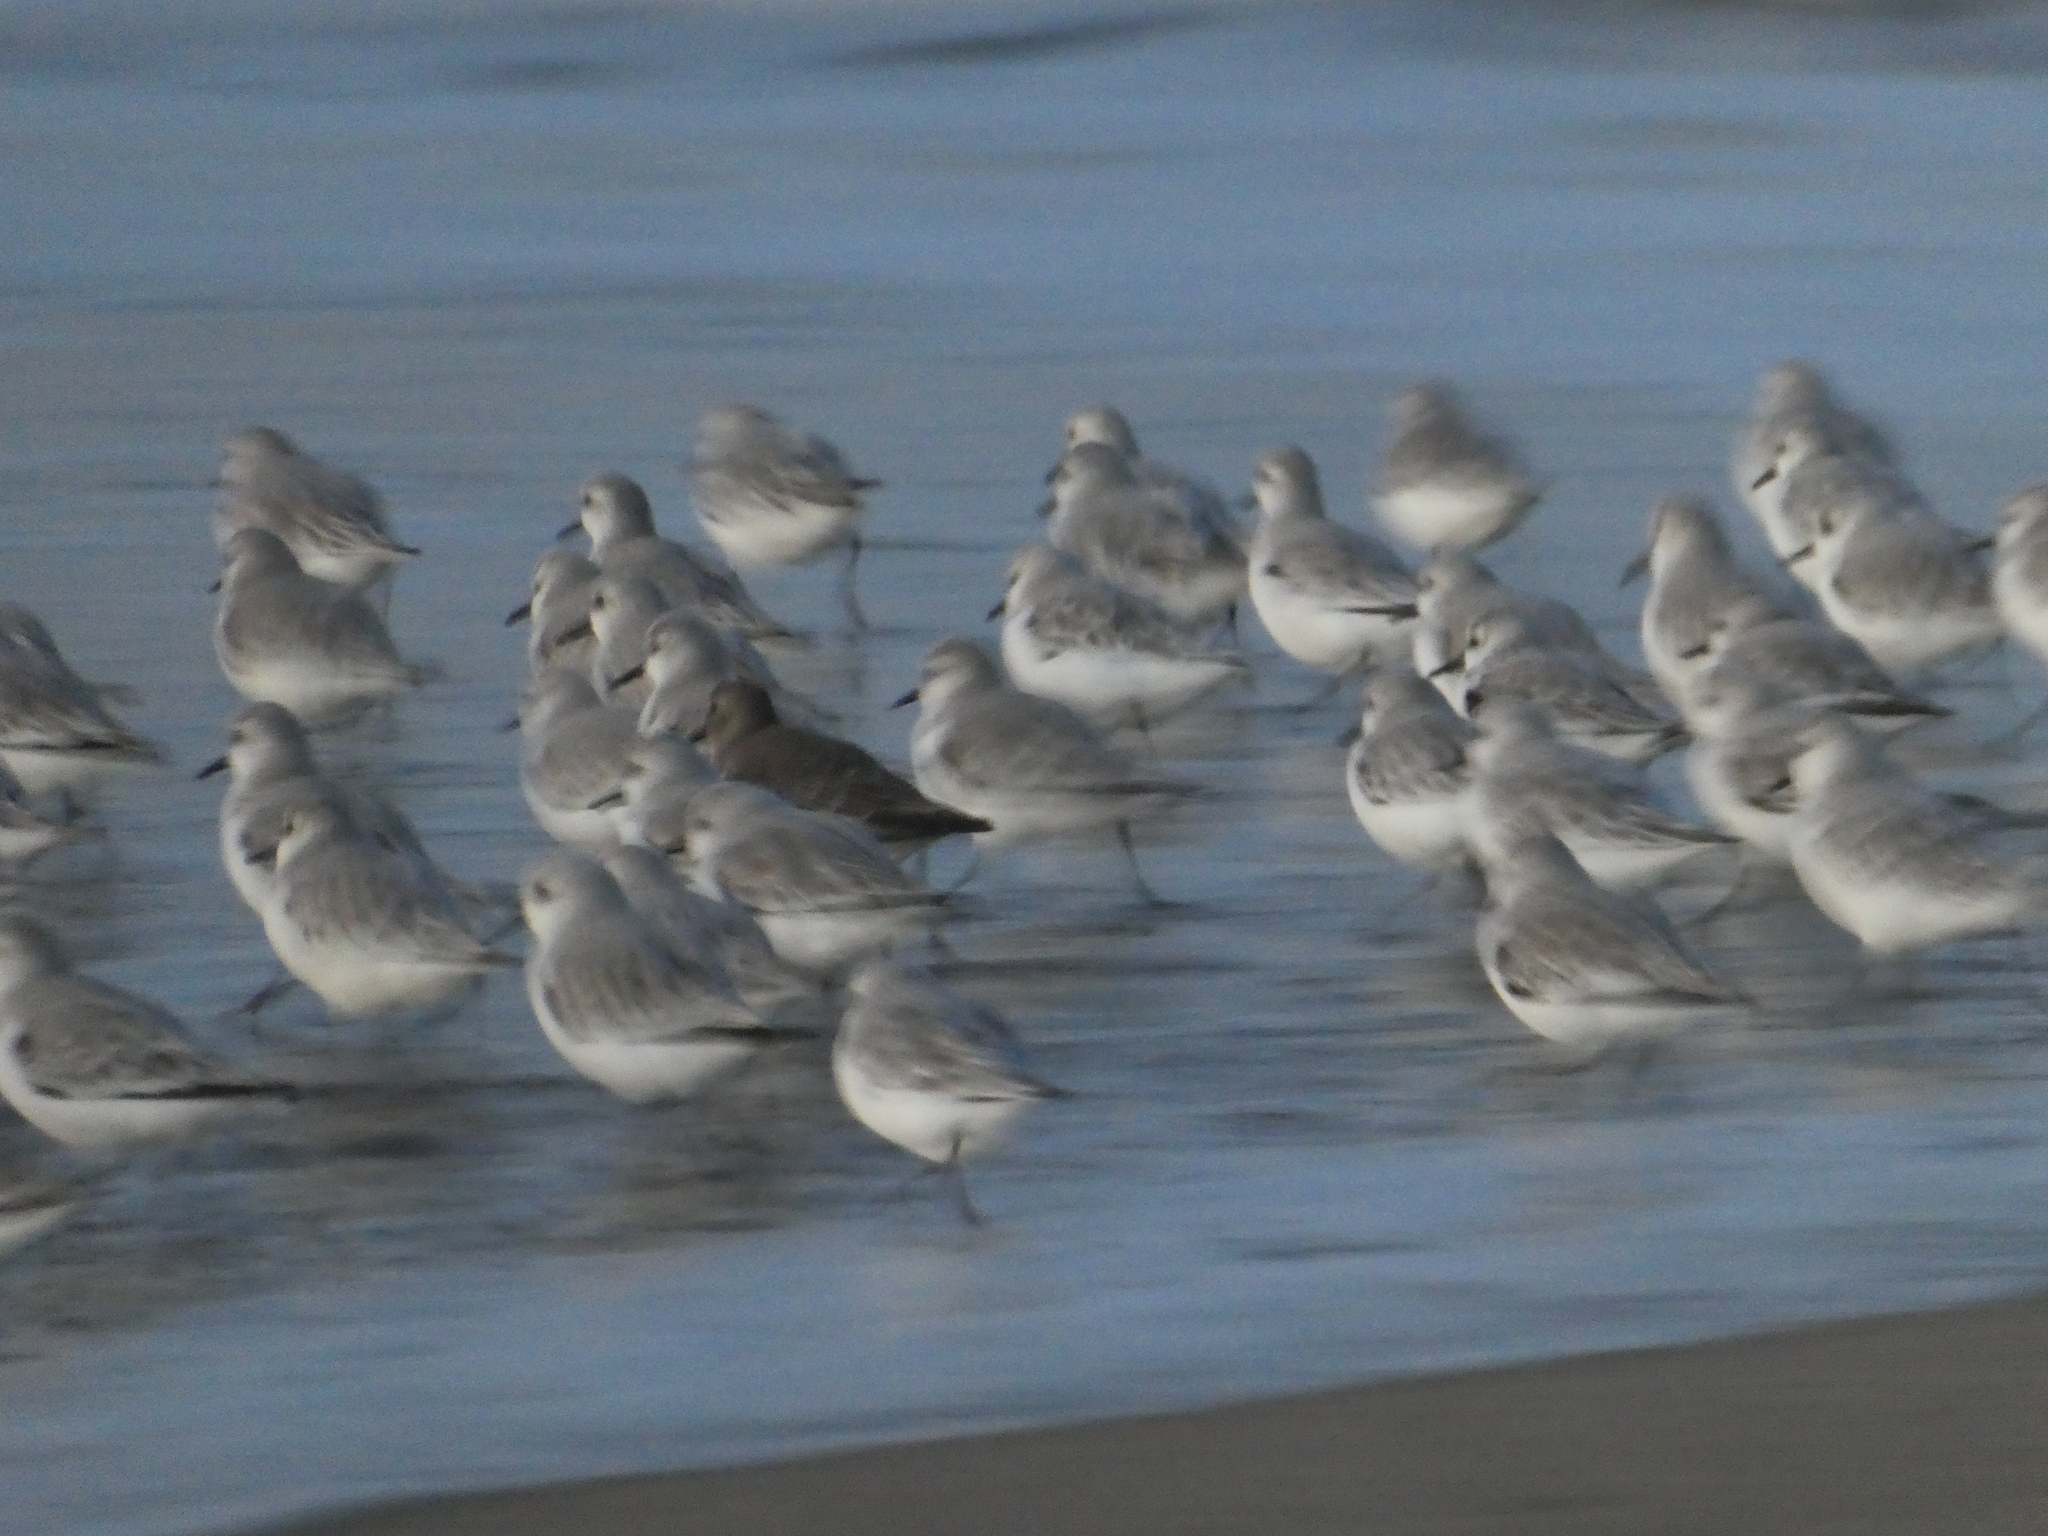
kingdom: Animalia
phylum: Chordata
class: Aves
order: Charadriiformes
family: Scolopacidae
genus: Calidris
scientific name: Calidris alpina
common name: Dunlin
